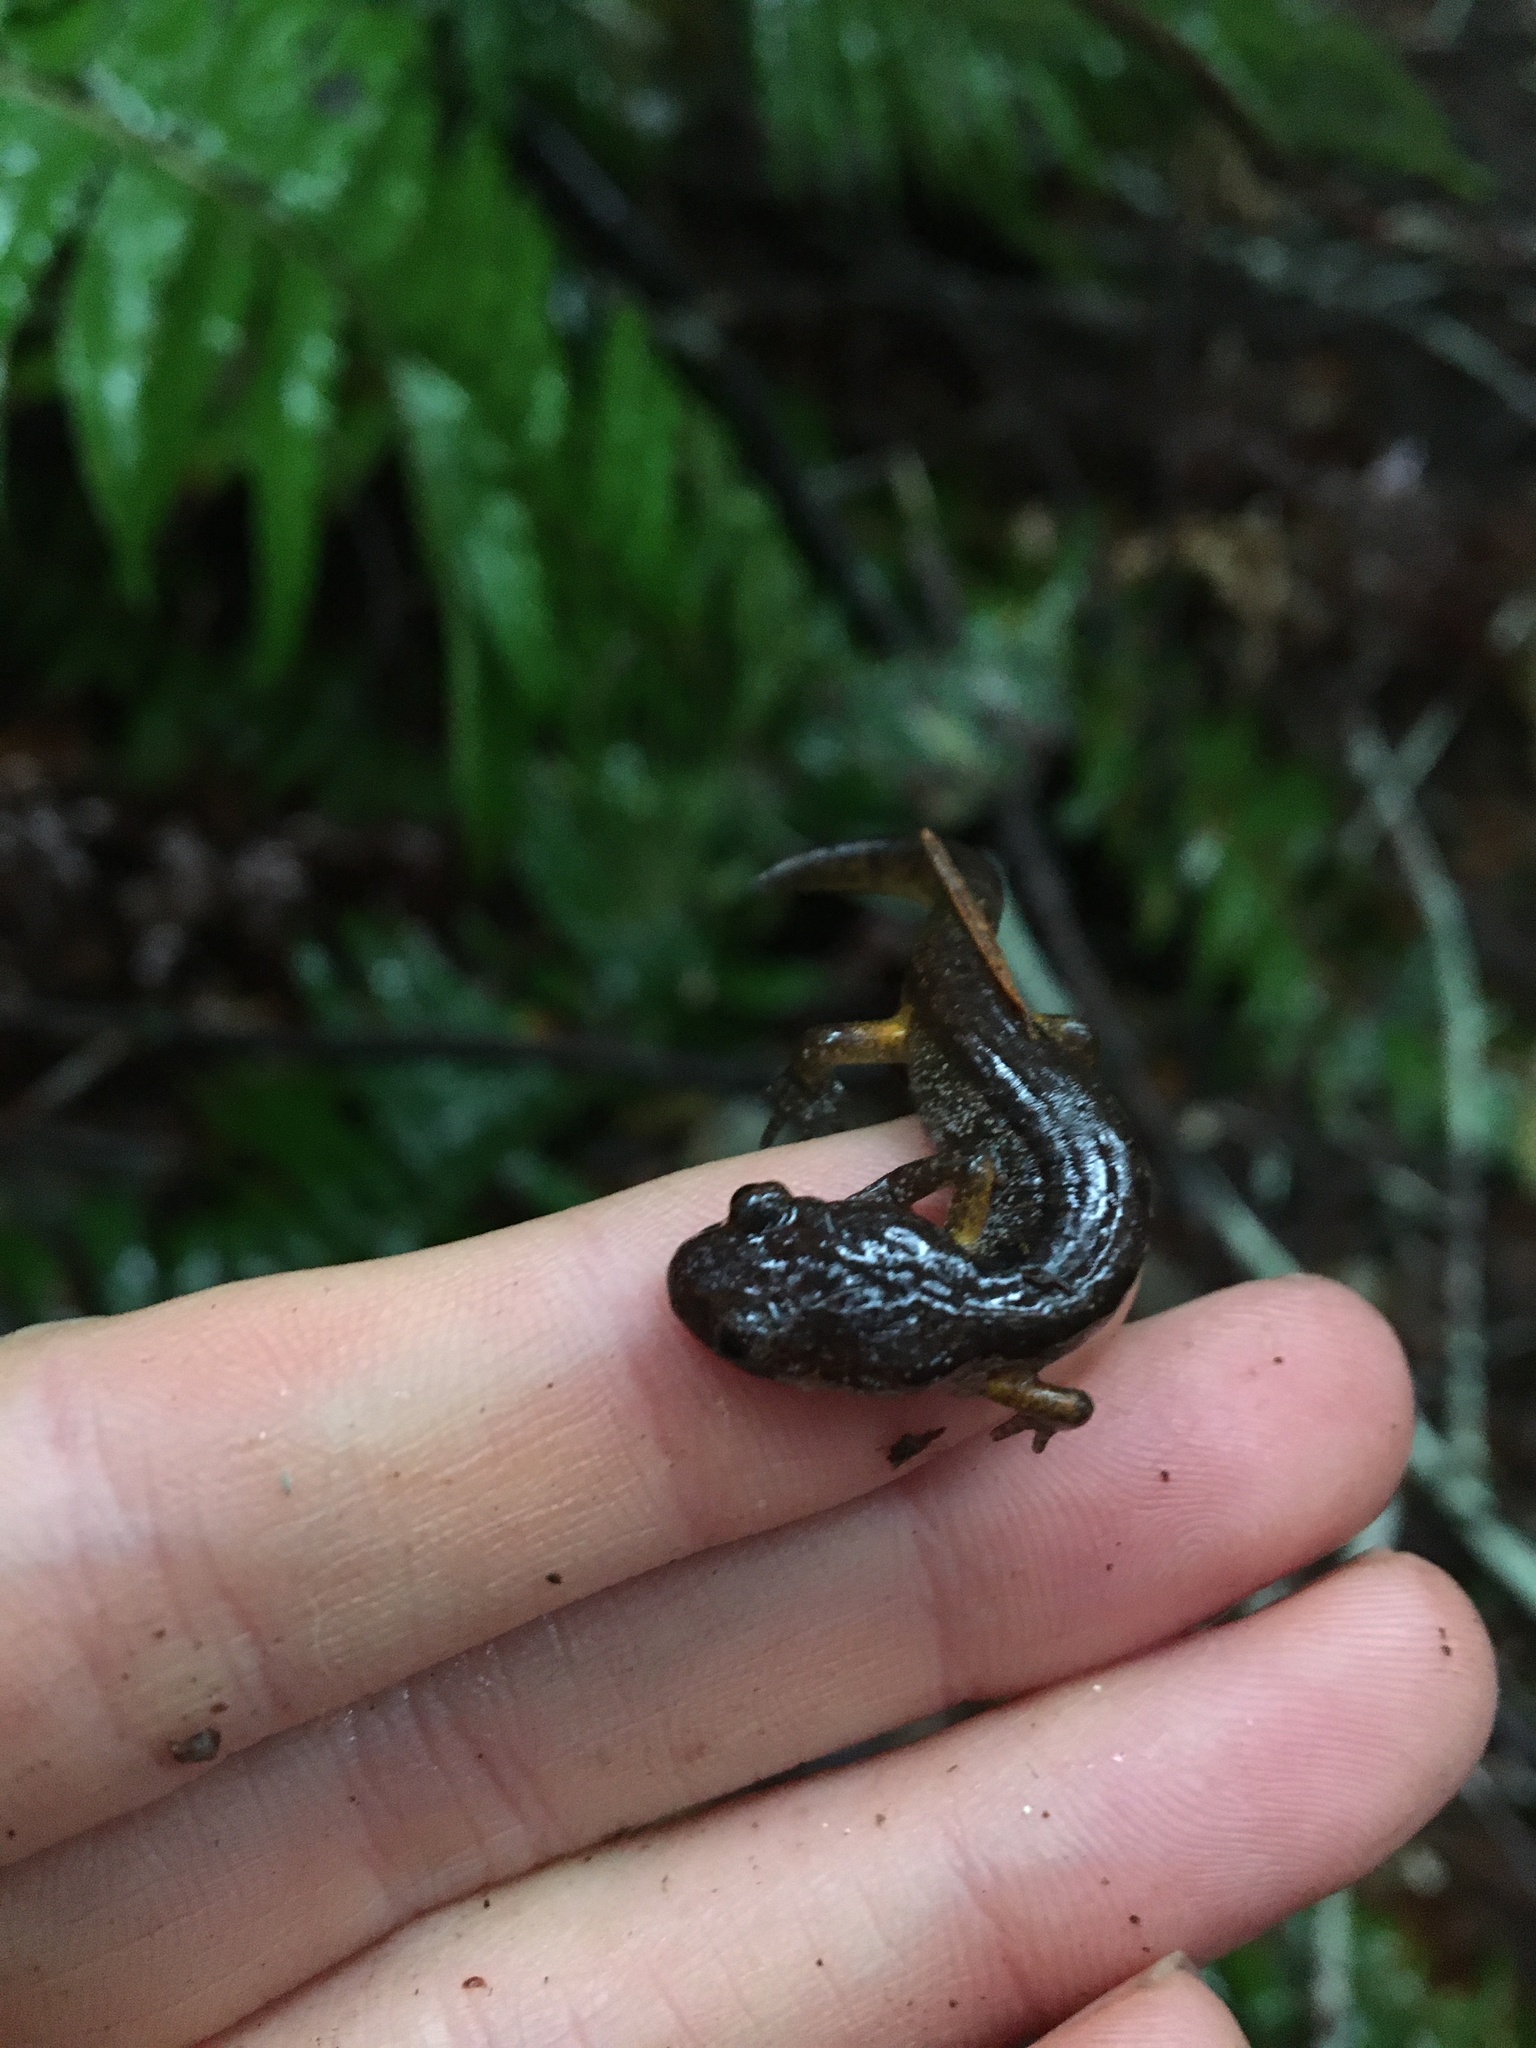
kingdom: Animalia
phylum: Chordata
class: Amphibia
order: Caudata
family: Plethodontidae
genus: Ensatina
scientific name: Ensatina eschscholtzii
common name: Ensatina
